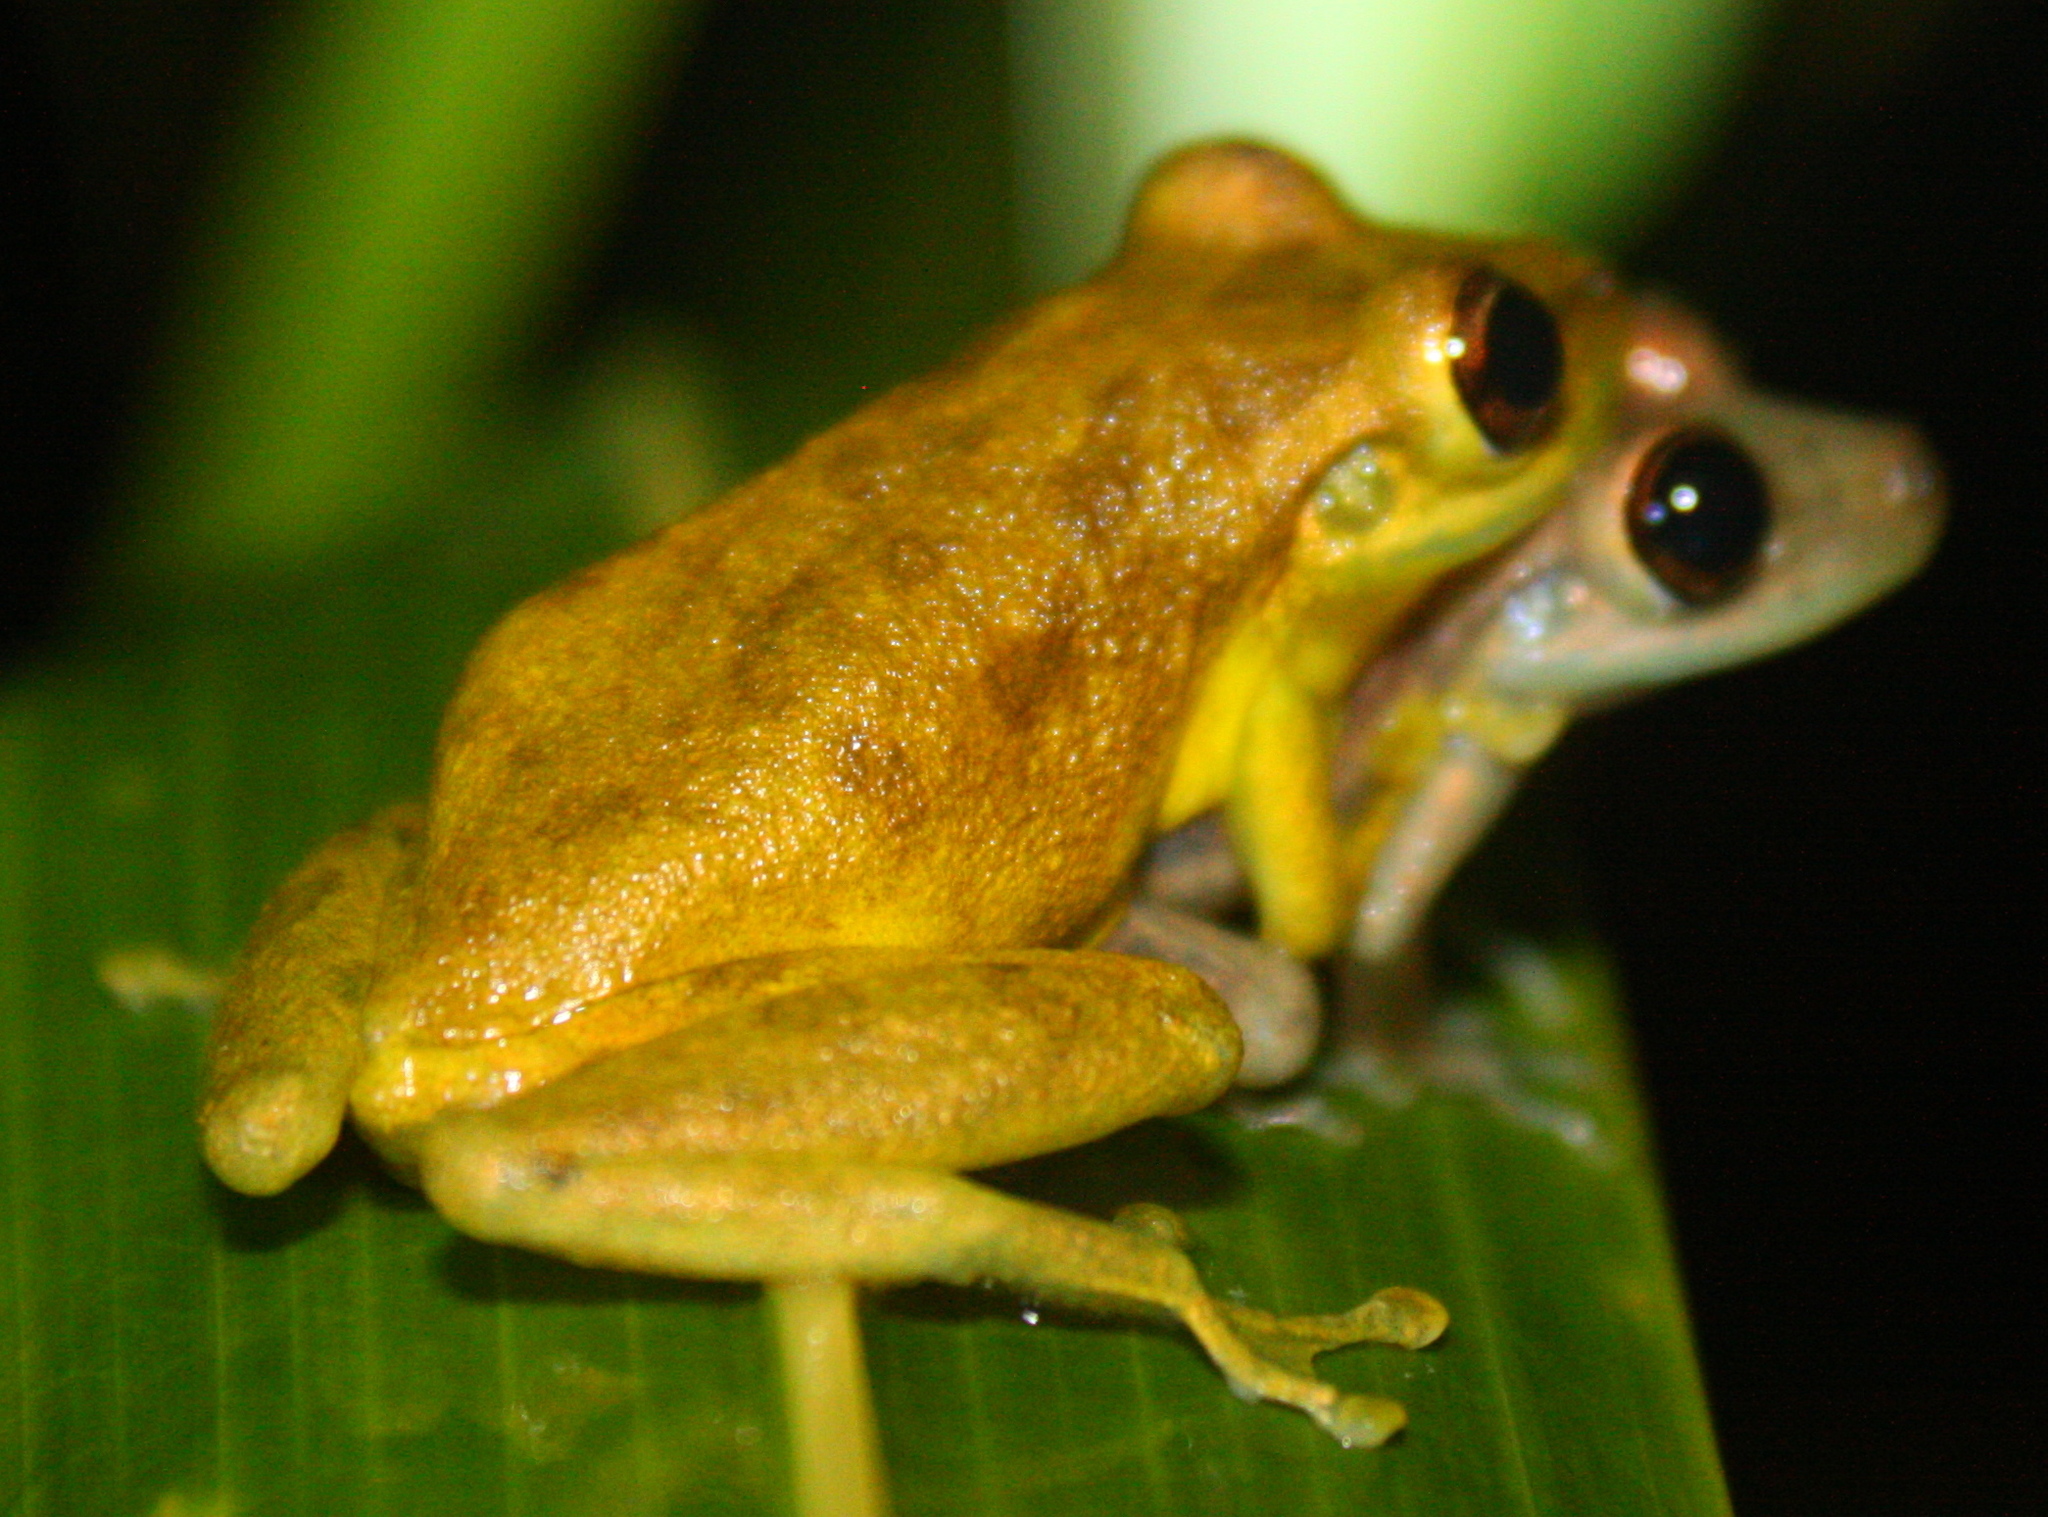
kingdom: Animalia
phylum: Chordata
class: Amphibia
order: Anura
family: Hylidae
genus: Scinax
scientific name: Scinax elaeochroa
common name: Sipurio snouted treefrog
